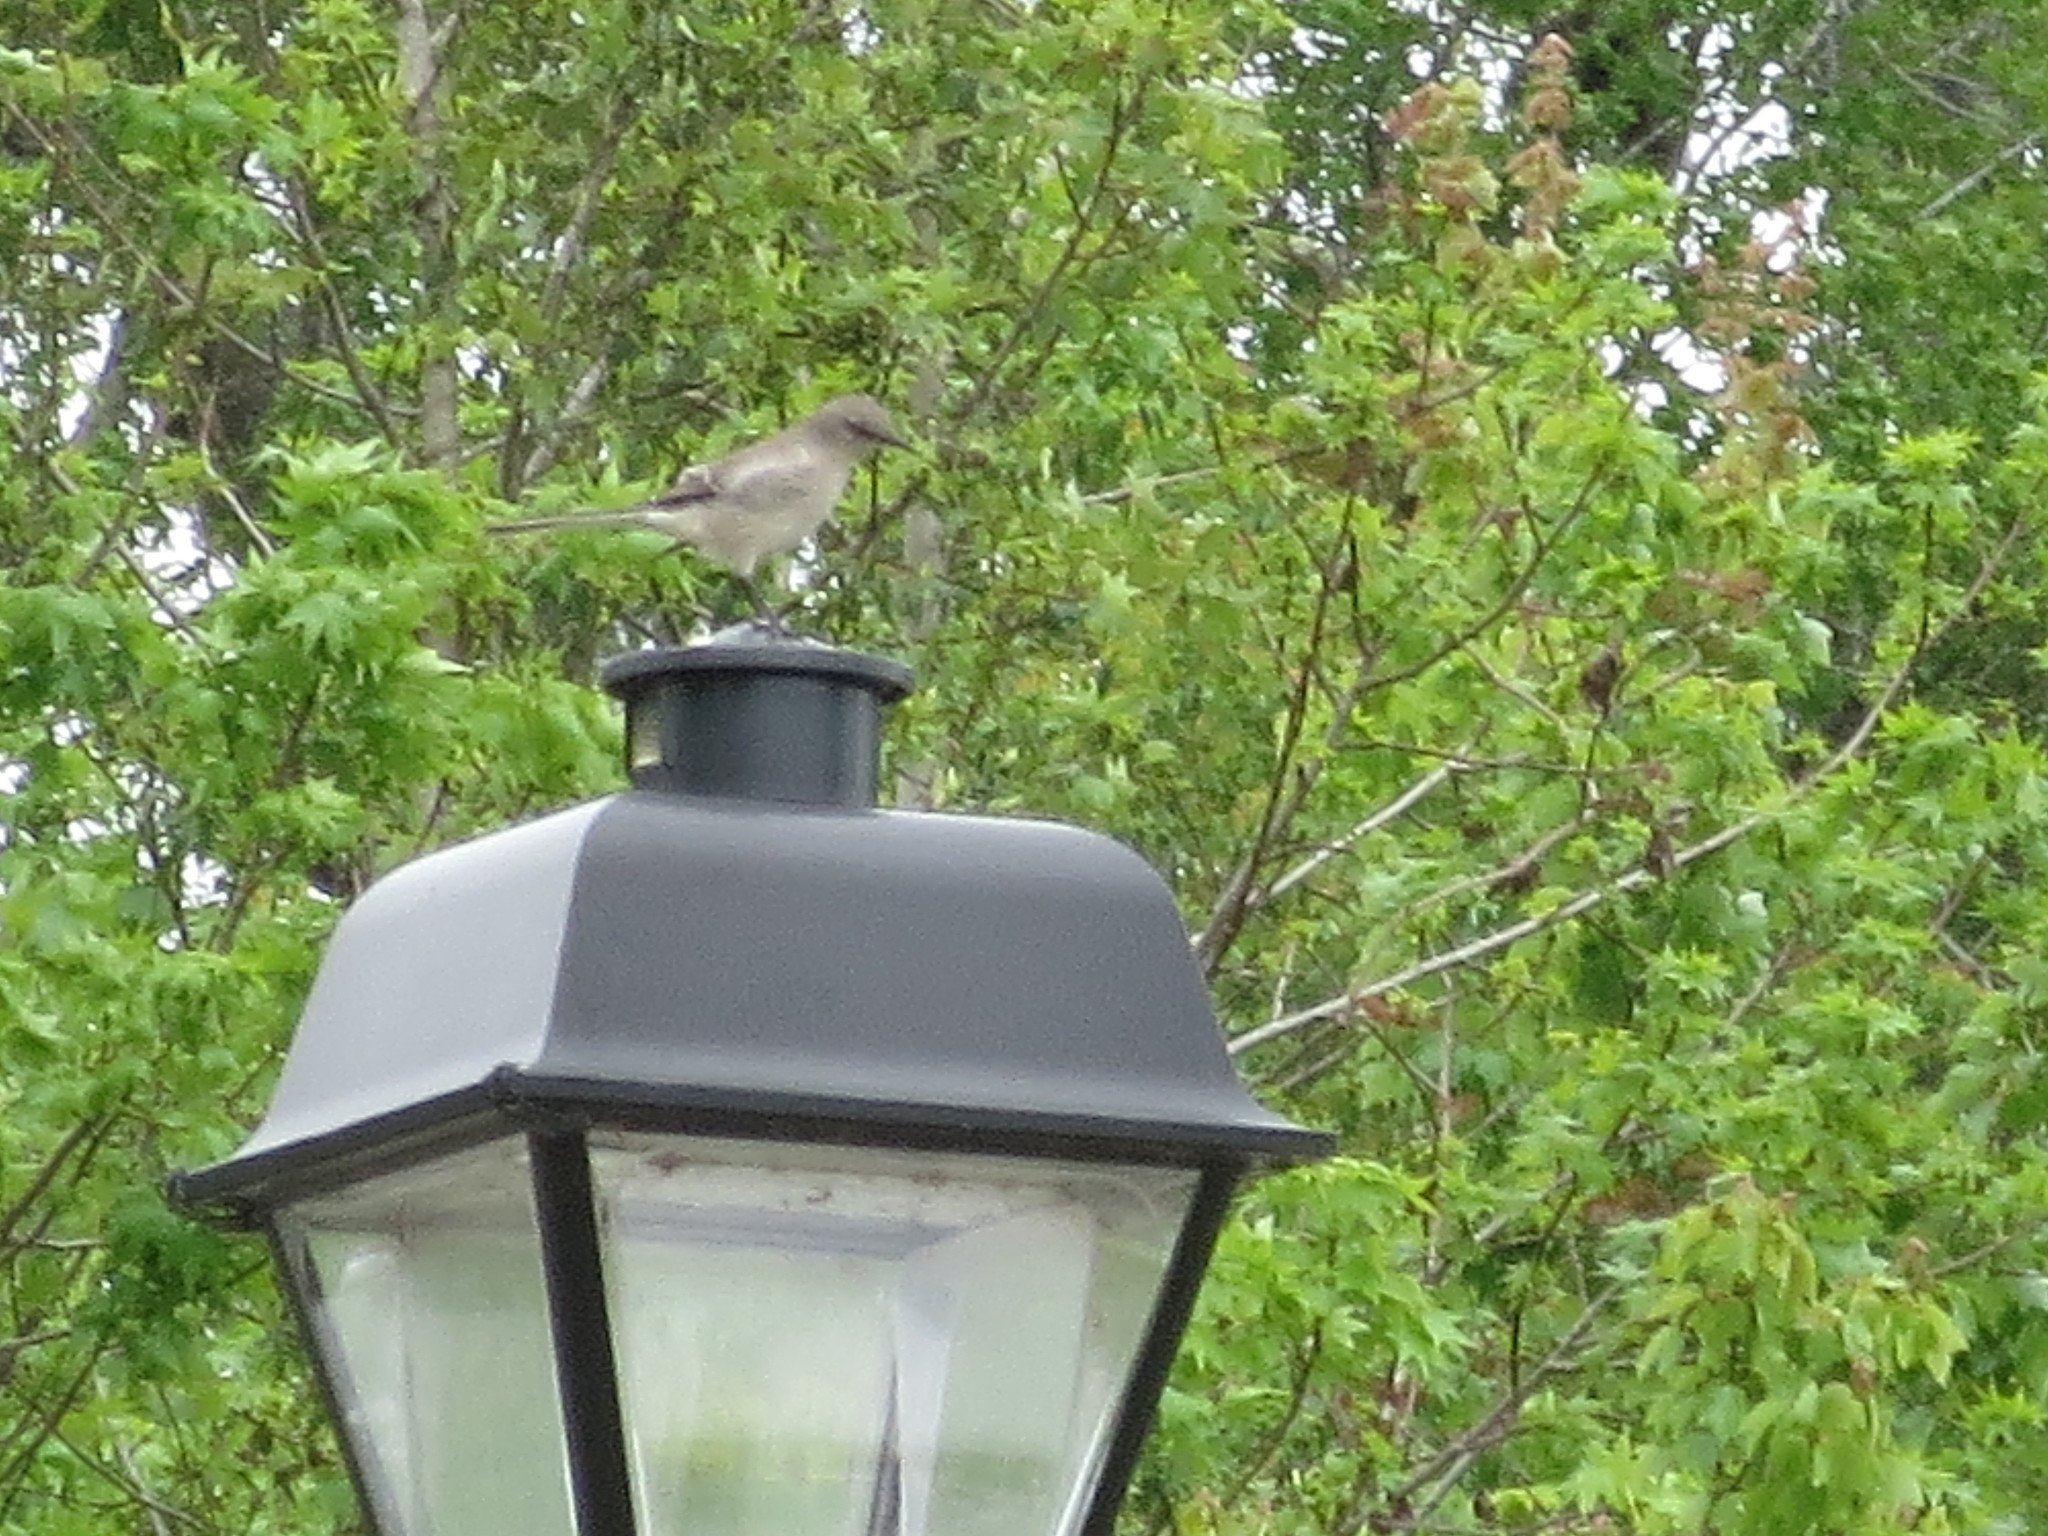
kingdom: Animalia
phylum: Chordata
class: Aves
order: Passeriformes
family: Mimidae
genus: Mimus
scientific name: Mimus polyglottos
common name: Northern mockingbird
